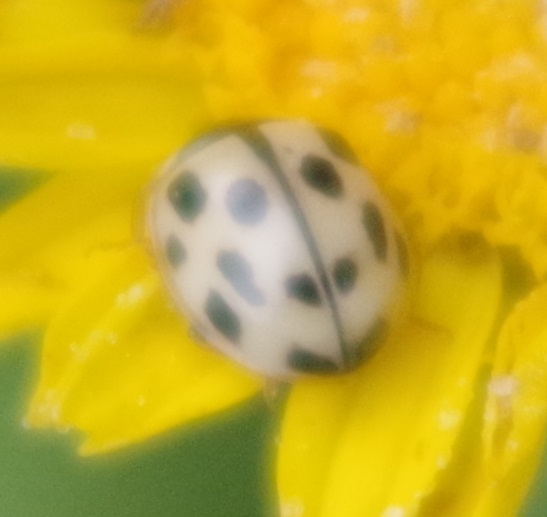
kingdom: Animalia
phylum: Arthropoda
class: Insecta
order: Coleoptera
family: Coccinellidae
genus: Propylaea
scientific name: Propylaea quatuordecimpunctata
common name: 14-spotted ladybird beetle
